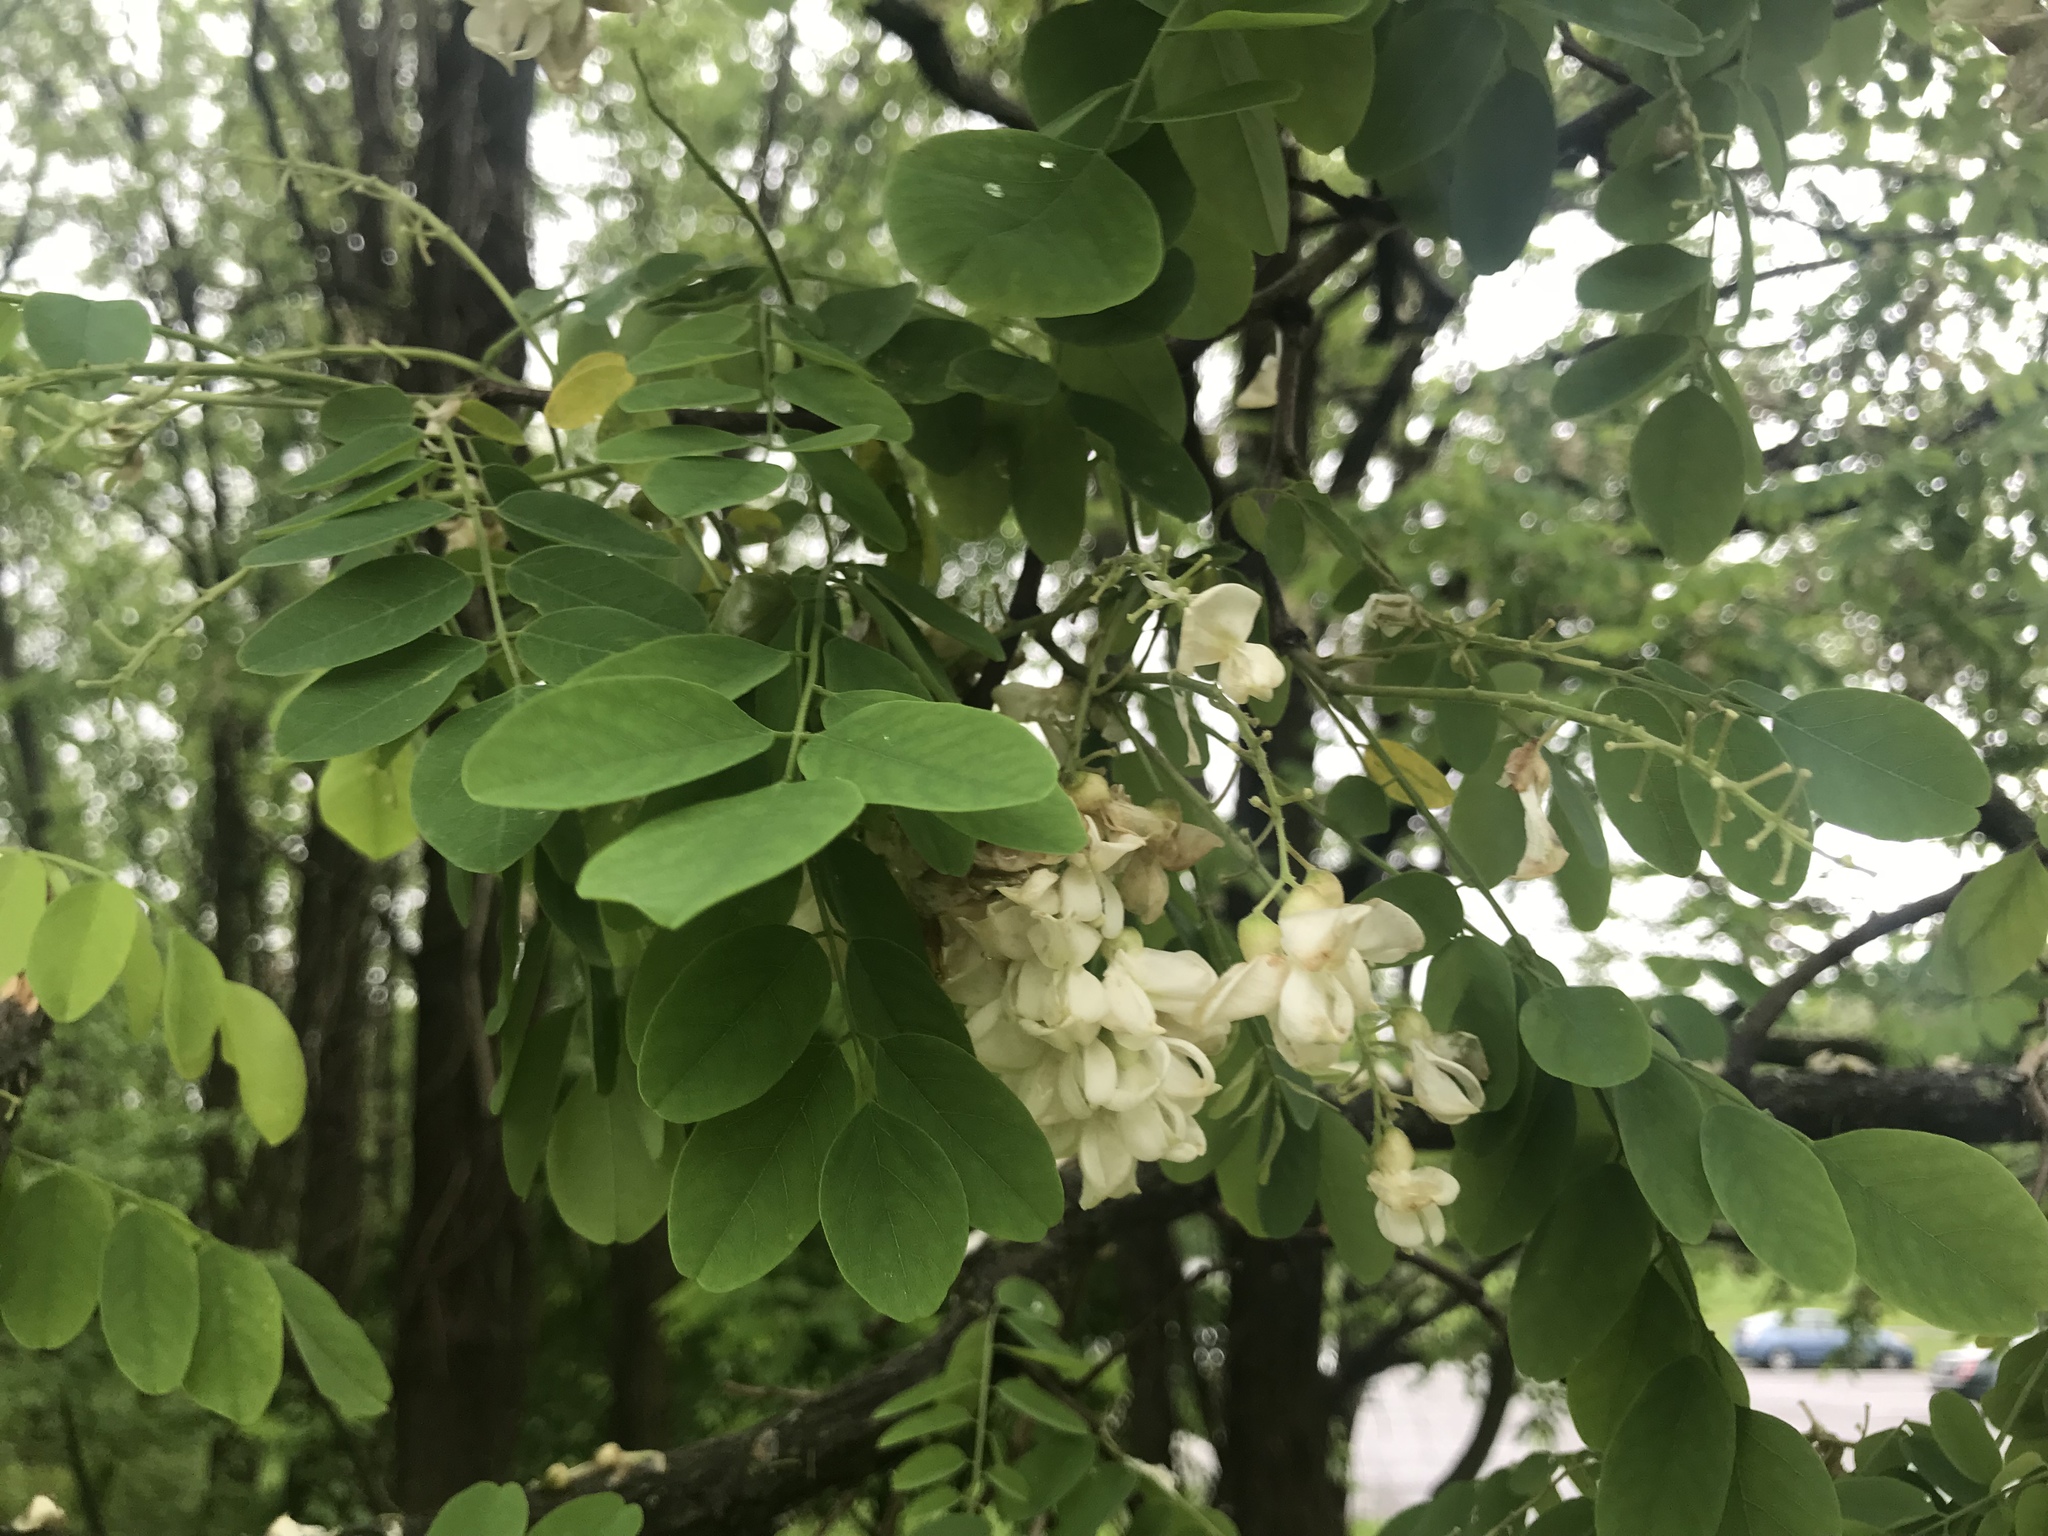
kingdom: Plantae
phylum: Tracheophyta
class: Magnoliopsida
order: Fabales
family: Fabaceae
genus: Robinia
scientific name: Robinia pseudoacacia
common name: Black locust
